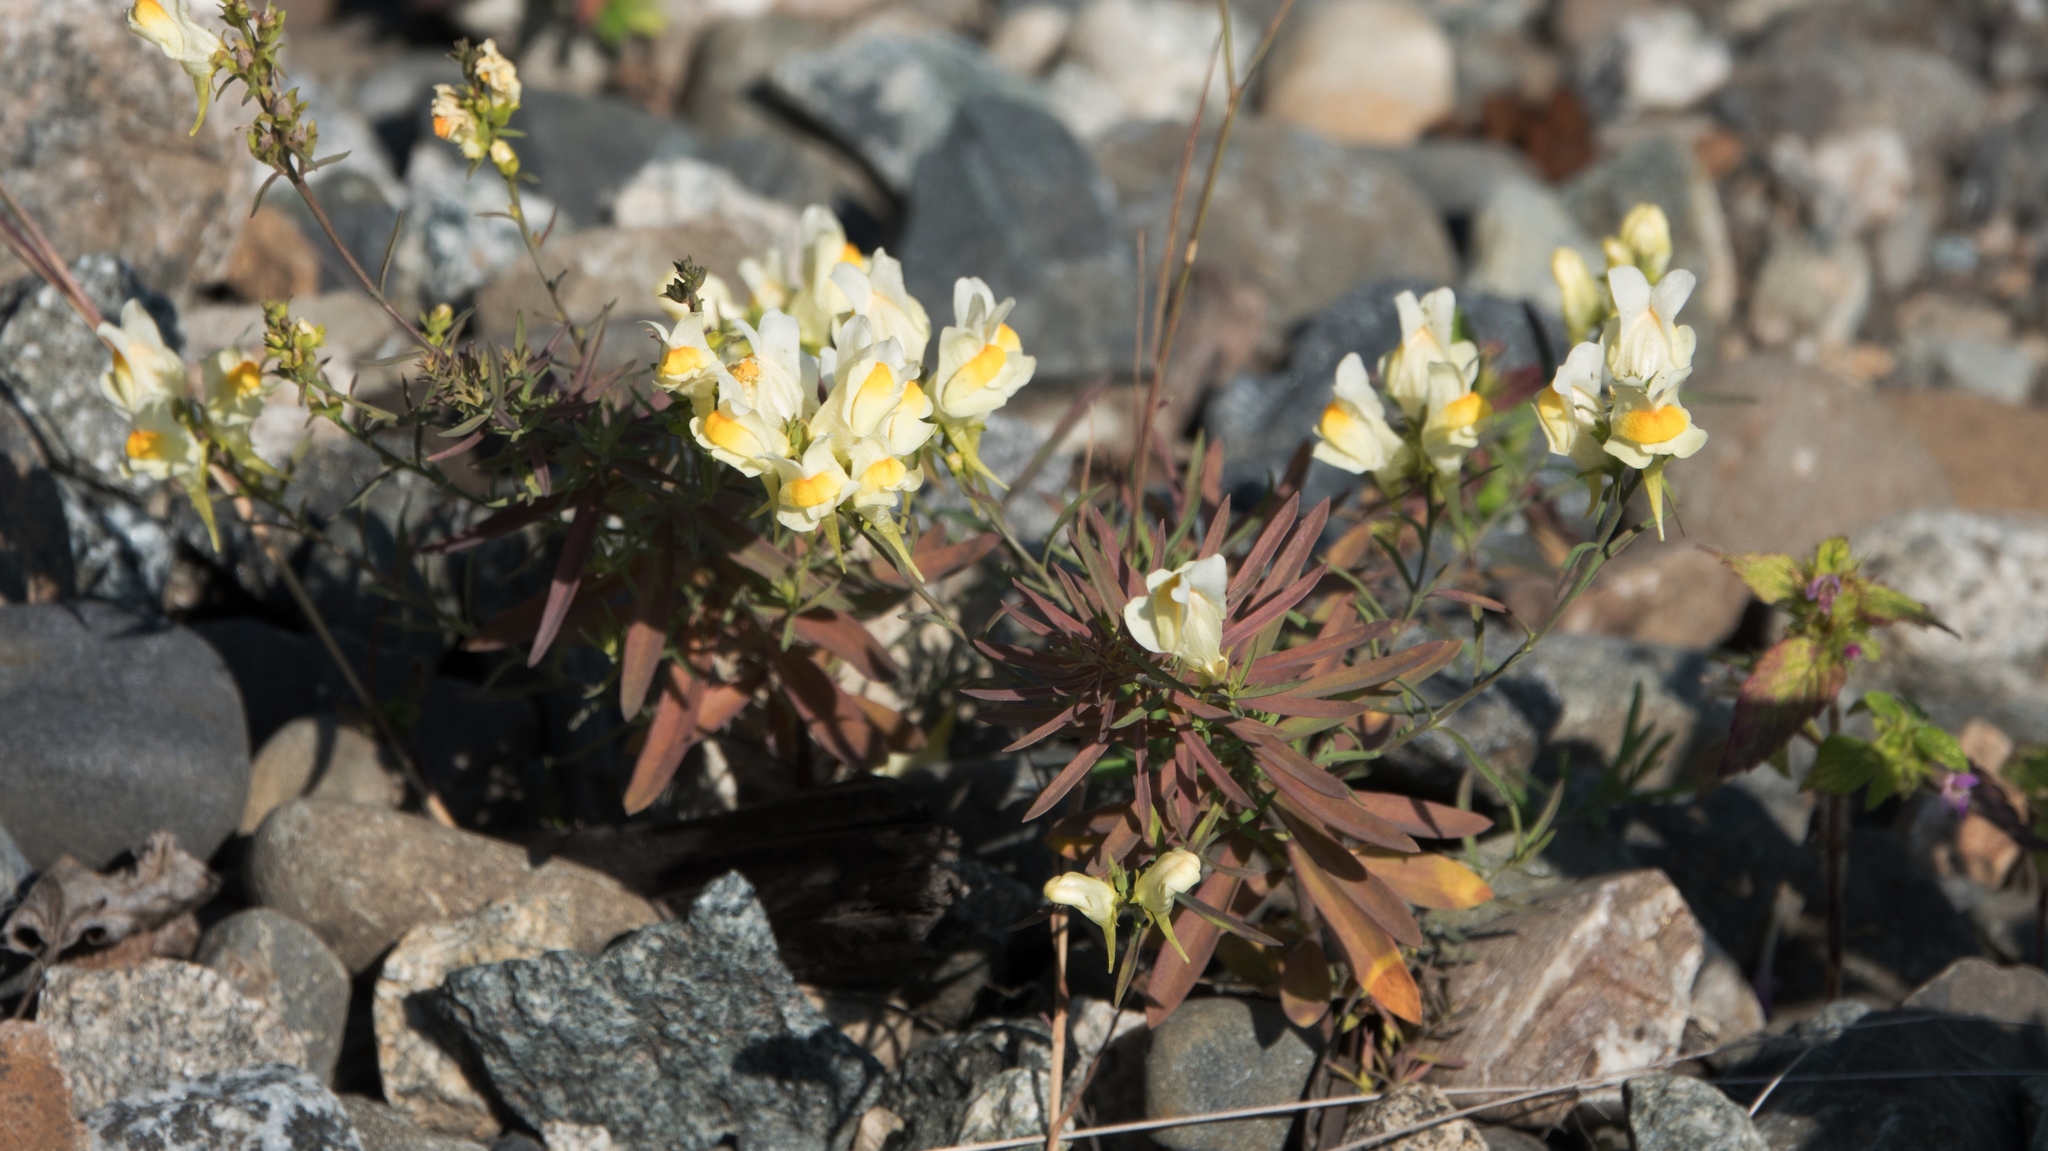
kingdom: Plantae
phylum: Tracheophyta
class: Magnoliopsida
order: Lamiales
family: Plantaginaceae
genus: Linaria
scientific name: Linaria vulgaris
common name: Butter and eggs
